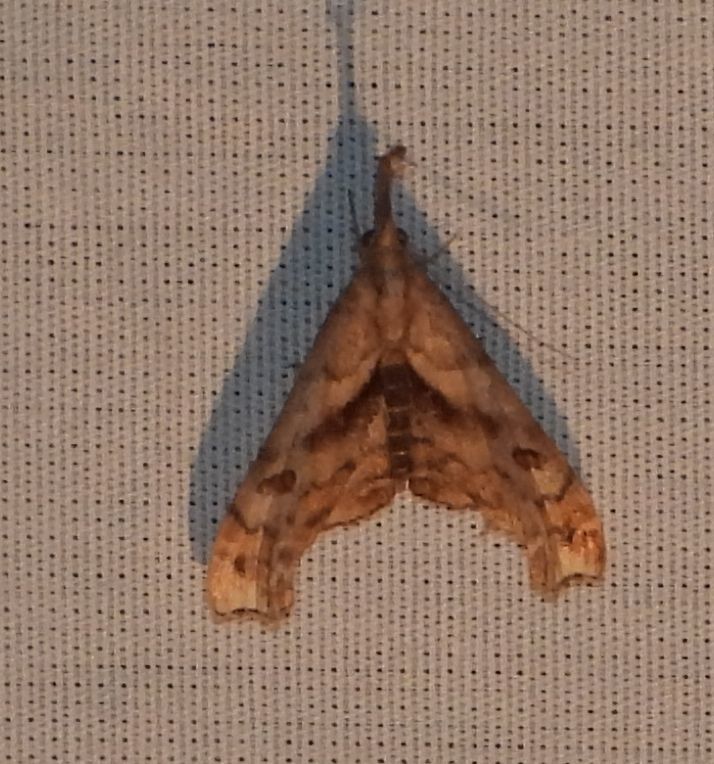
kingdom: Animalia
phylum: Arthropoda
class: Insecta
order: Lepidoptera
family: Erebidae
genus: Palthis
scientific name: Palthis angulalis
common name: Dark-spotted palthis moth
